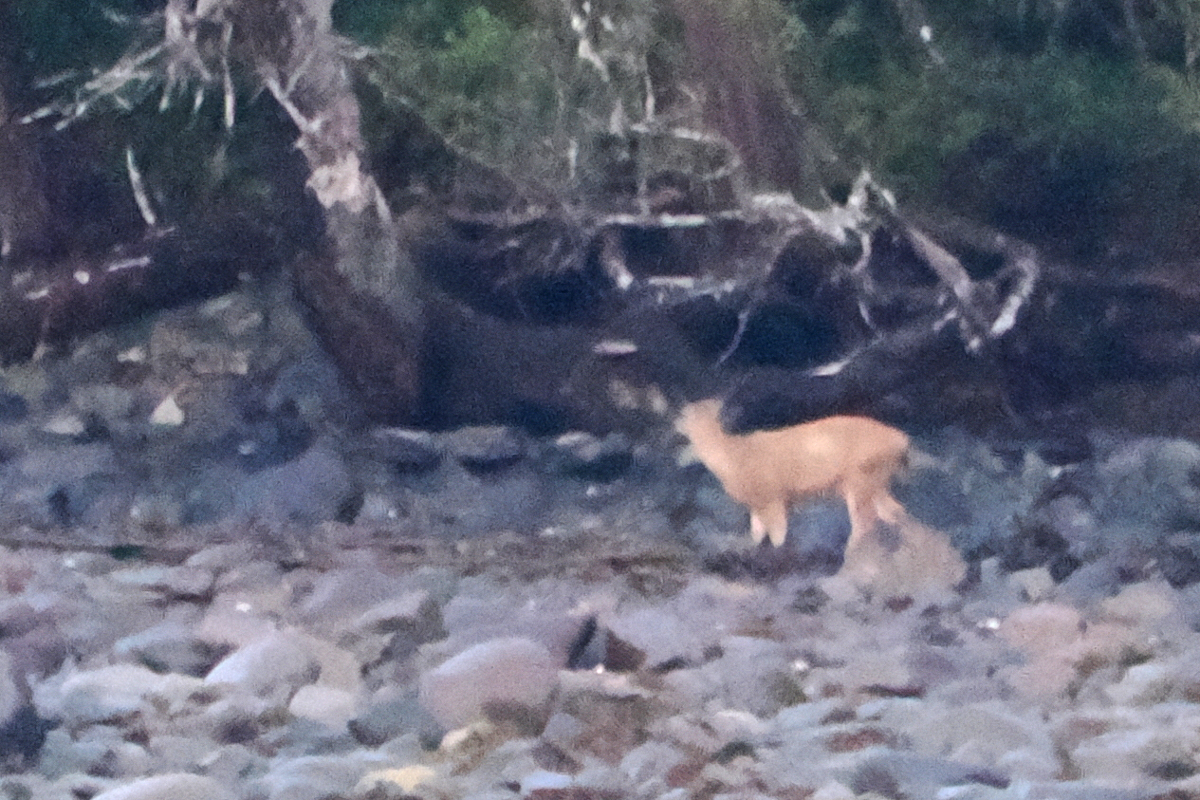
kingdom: Animalia
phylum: Chordata
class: Mammalia
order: Artiodactyla
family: Cervidae
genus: Odocoileus
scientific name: Odocoileus hemionus
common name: Mule deer
